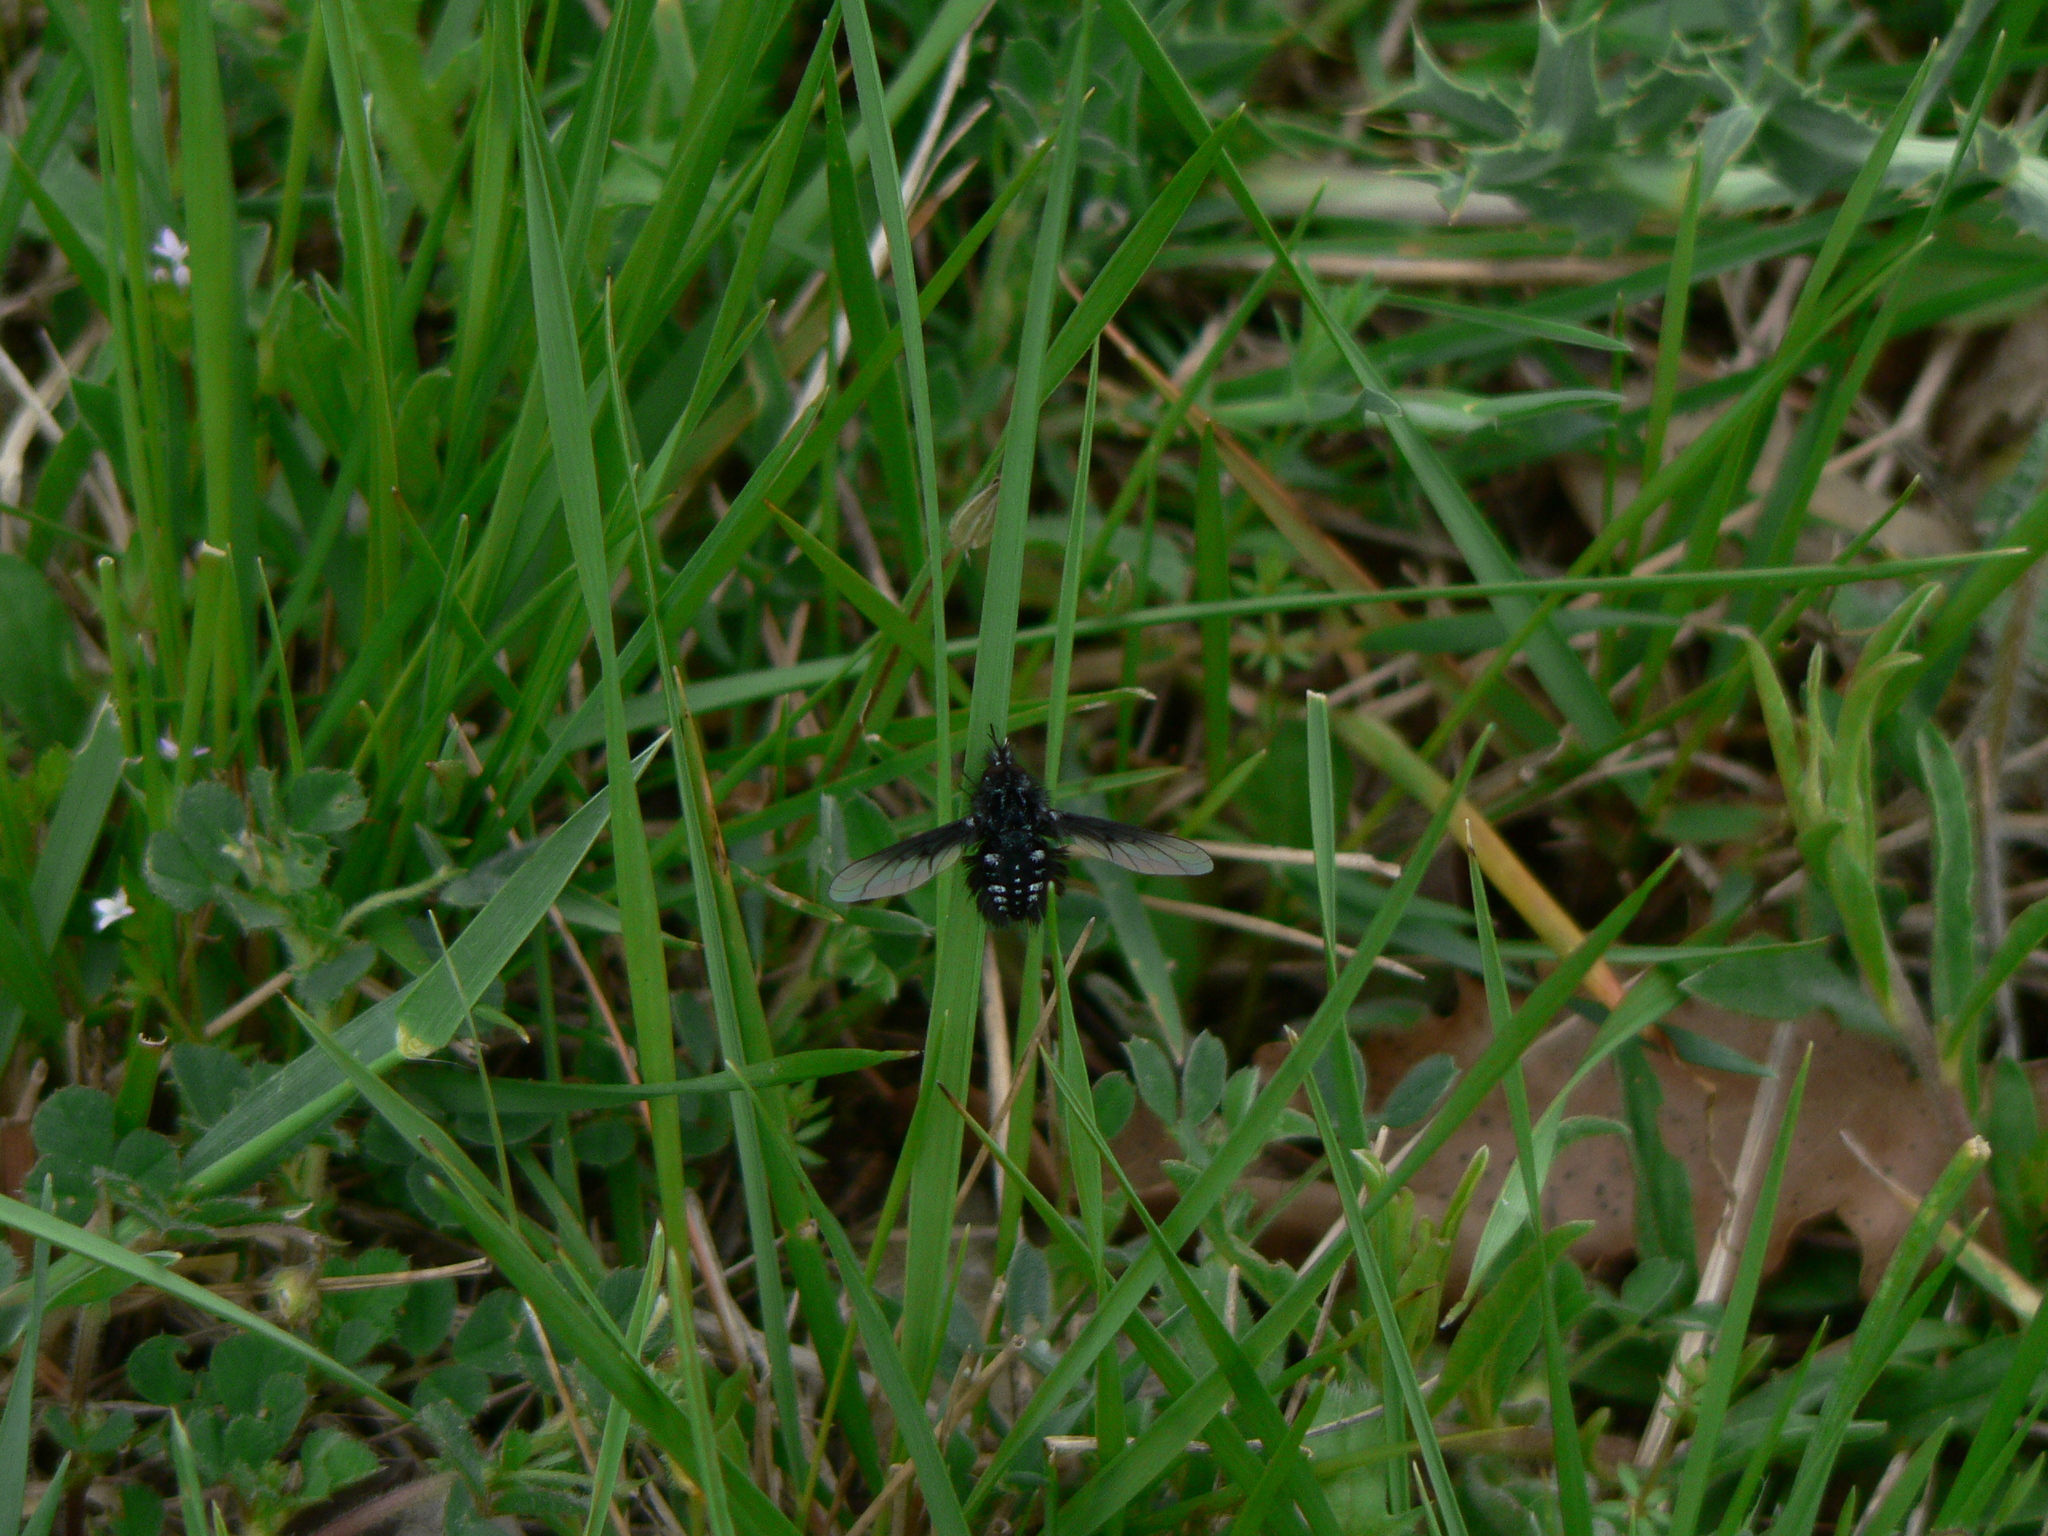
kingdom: Animalia
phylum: Arthropoda
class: Insecta
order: Diptera
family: Bombyliidae
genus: Bombylella
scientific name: Bombylella atra
